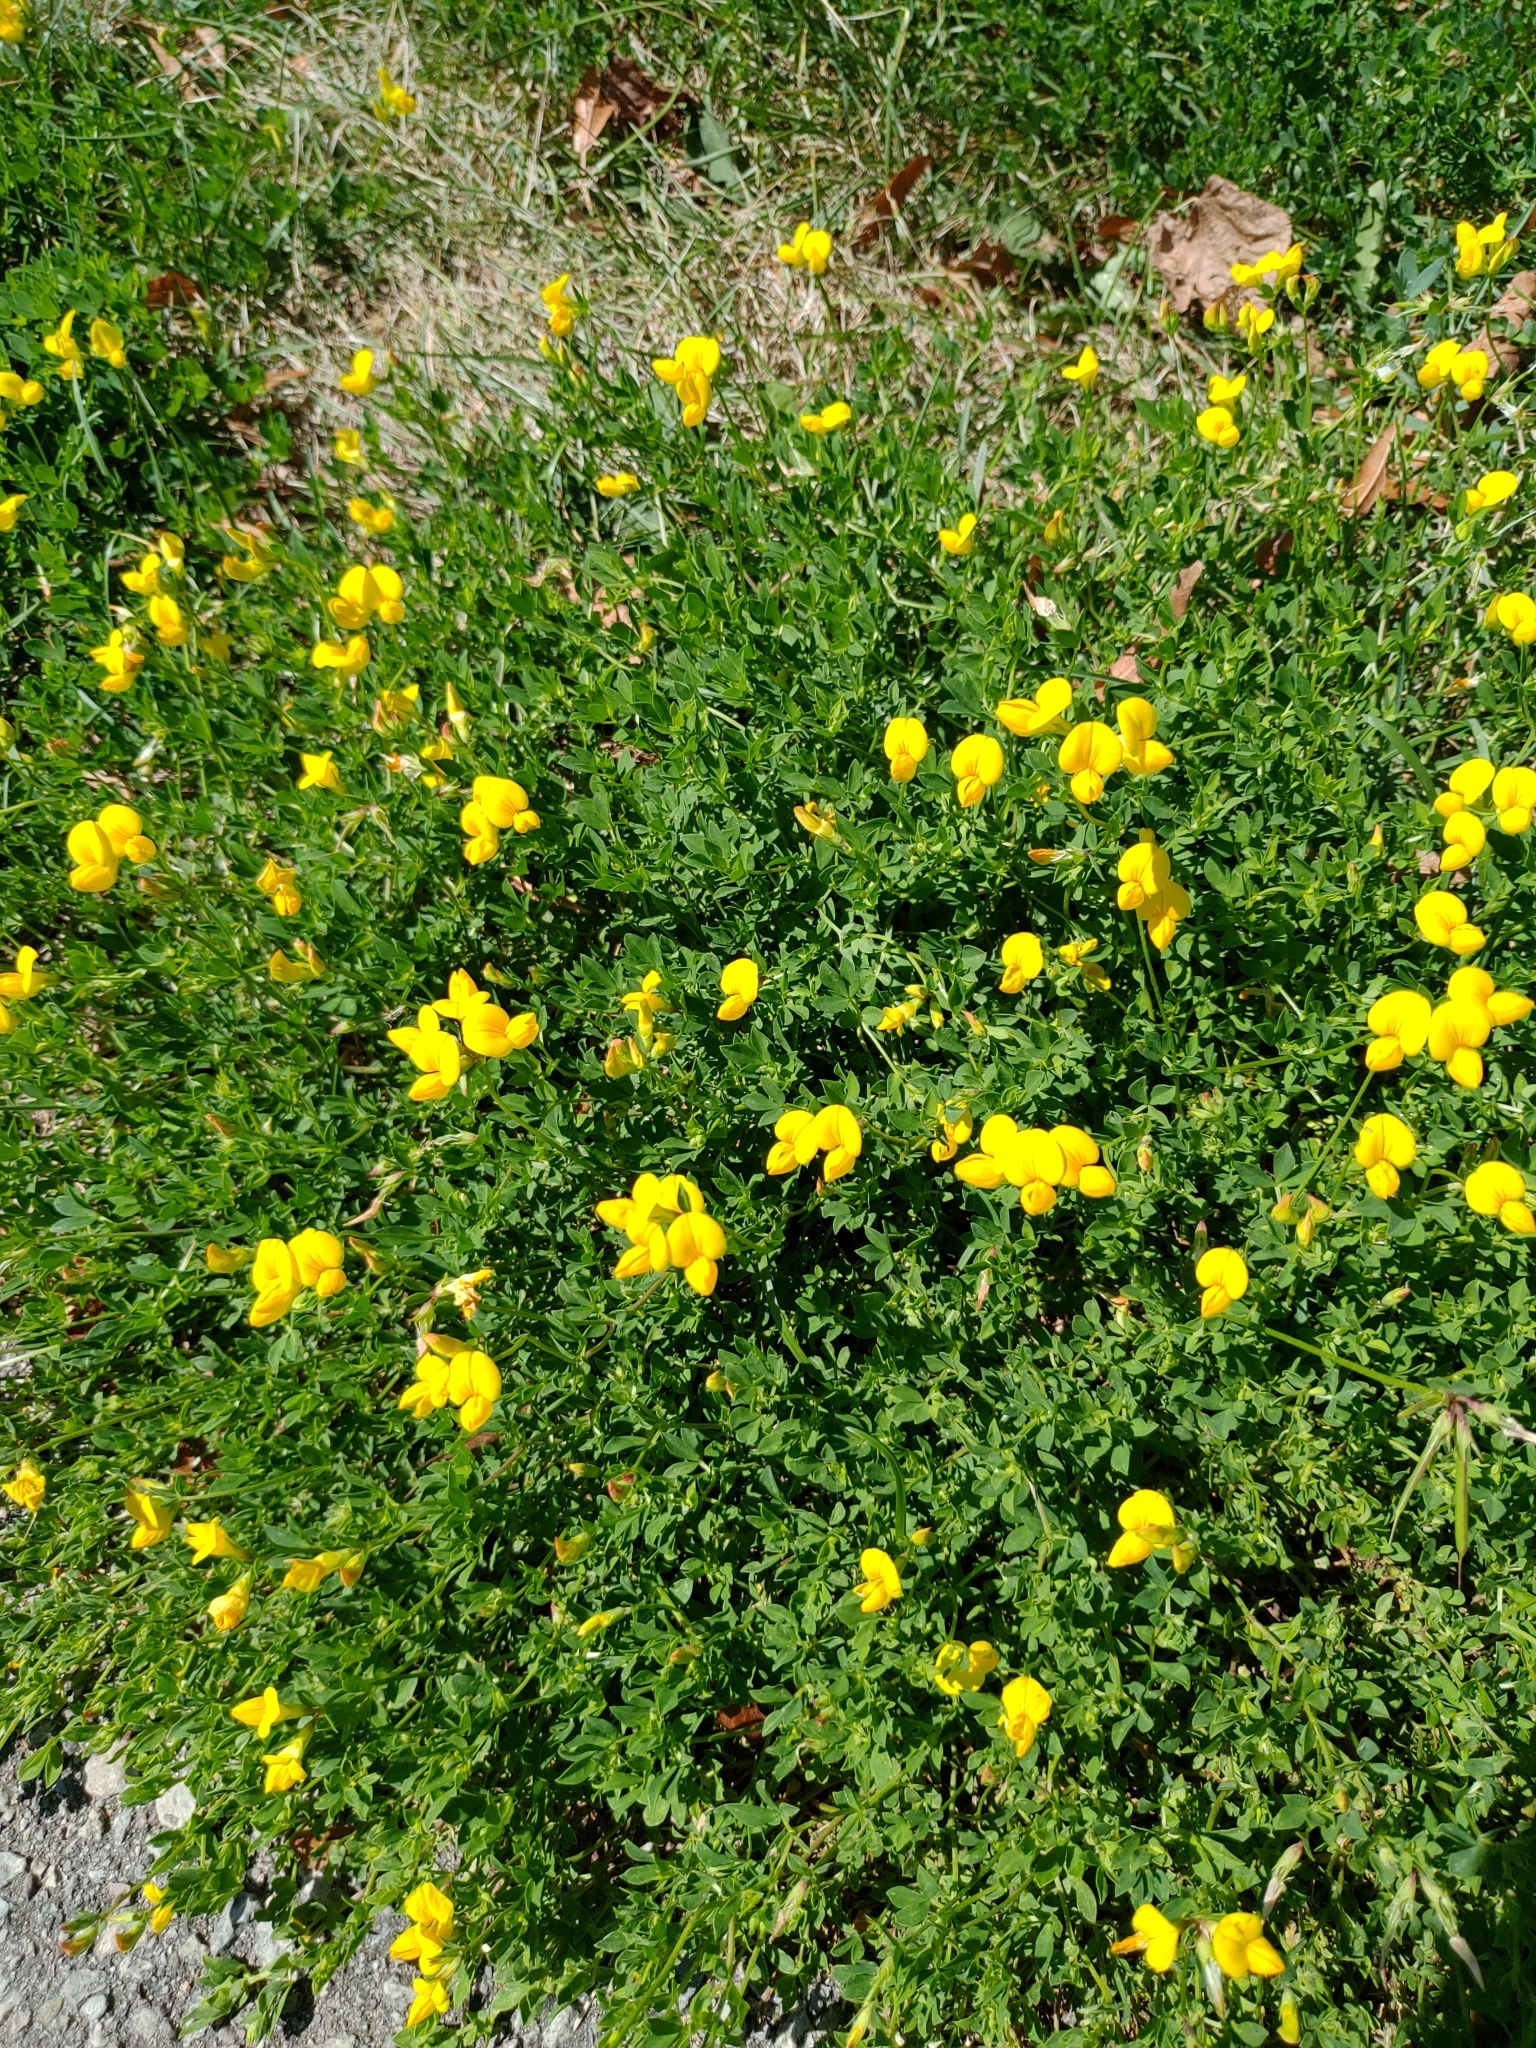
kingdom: Plantae
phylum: Tracheophyta
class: Magnoliopsida
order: Fabales
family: Fabaceae
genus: Lotus
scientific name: Lotus corniculatus
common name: Common bird's-foot-trefoil
